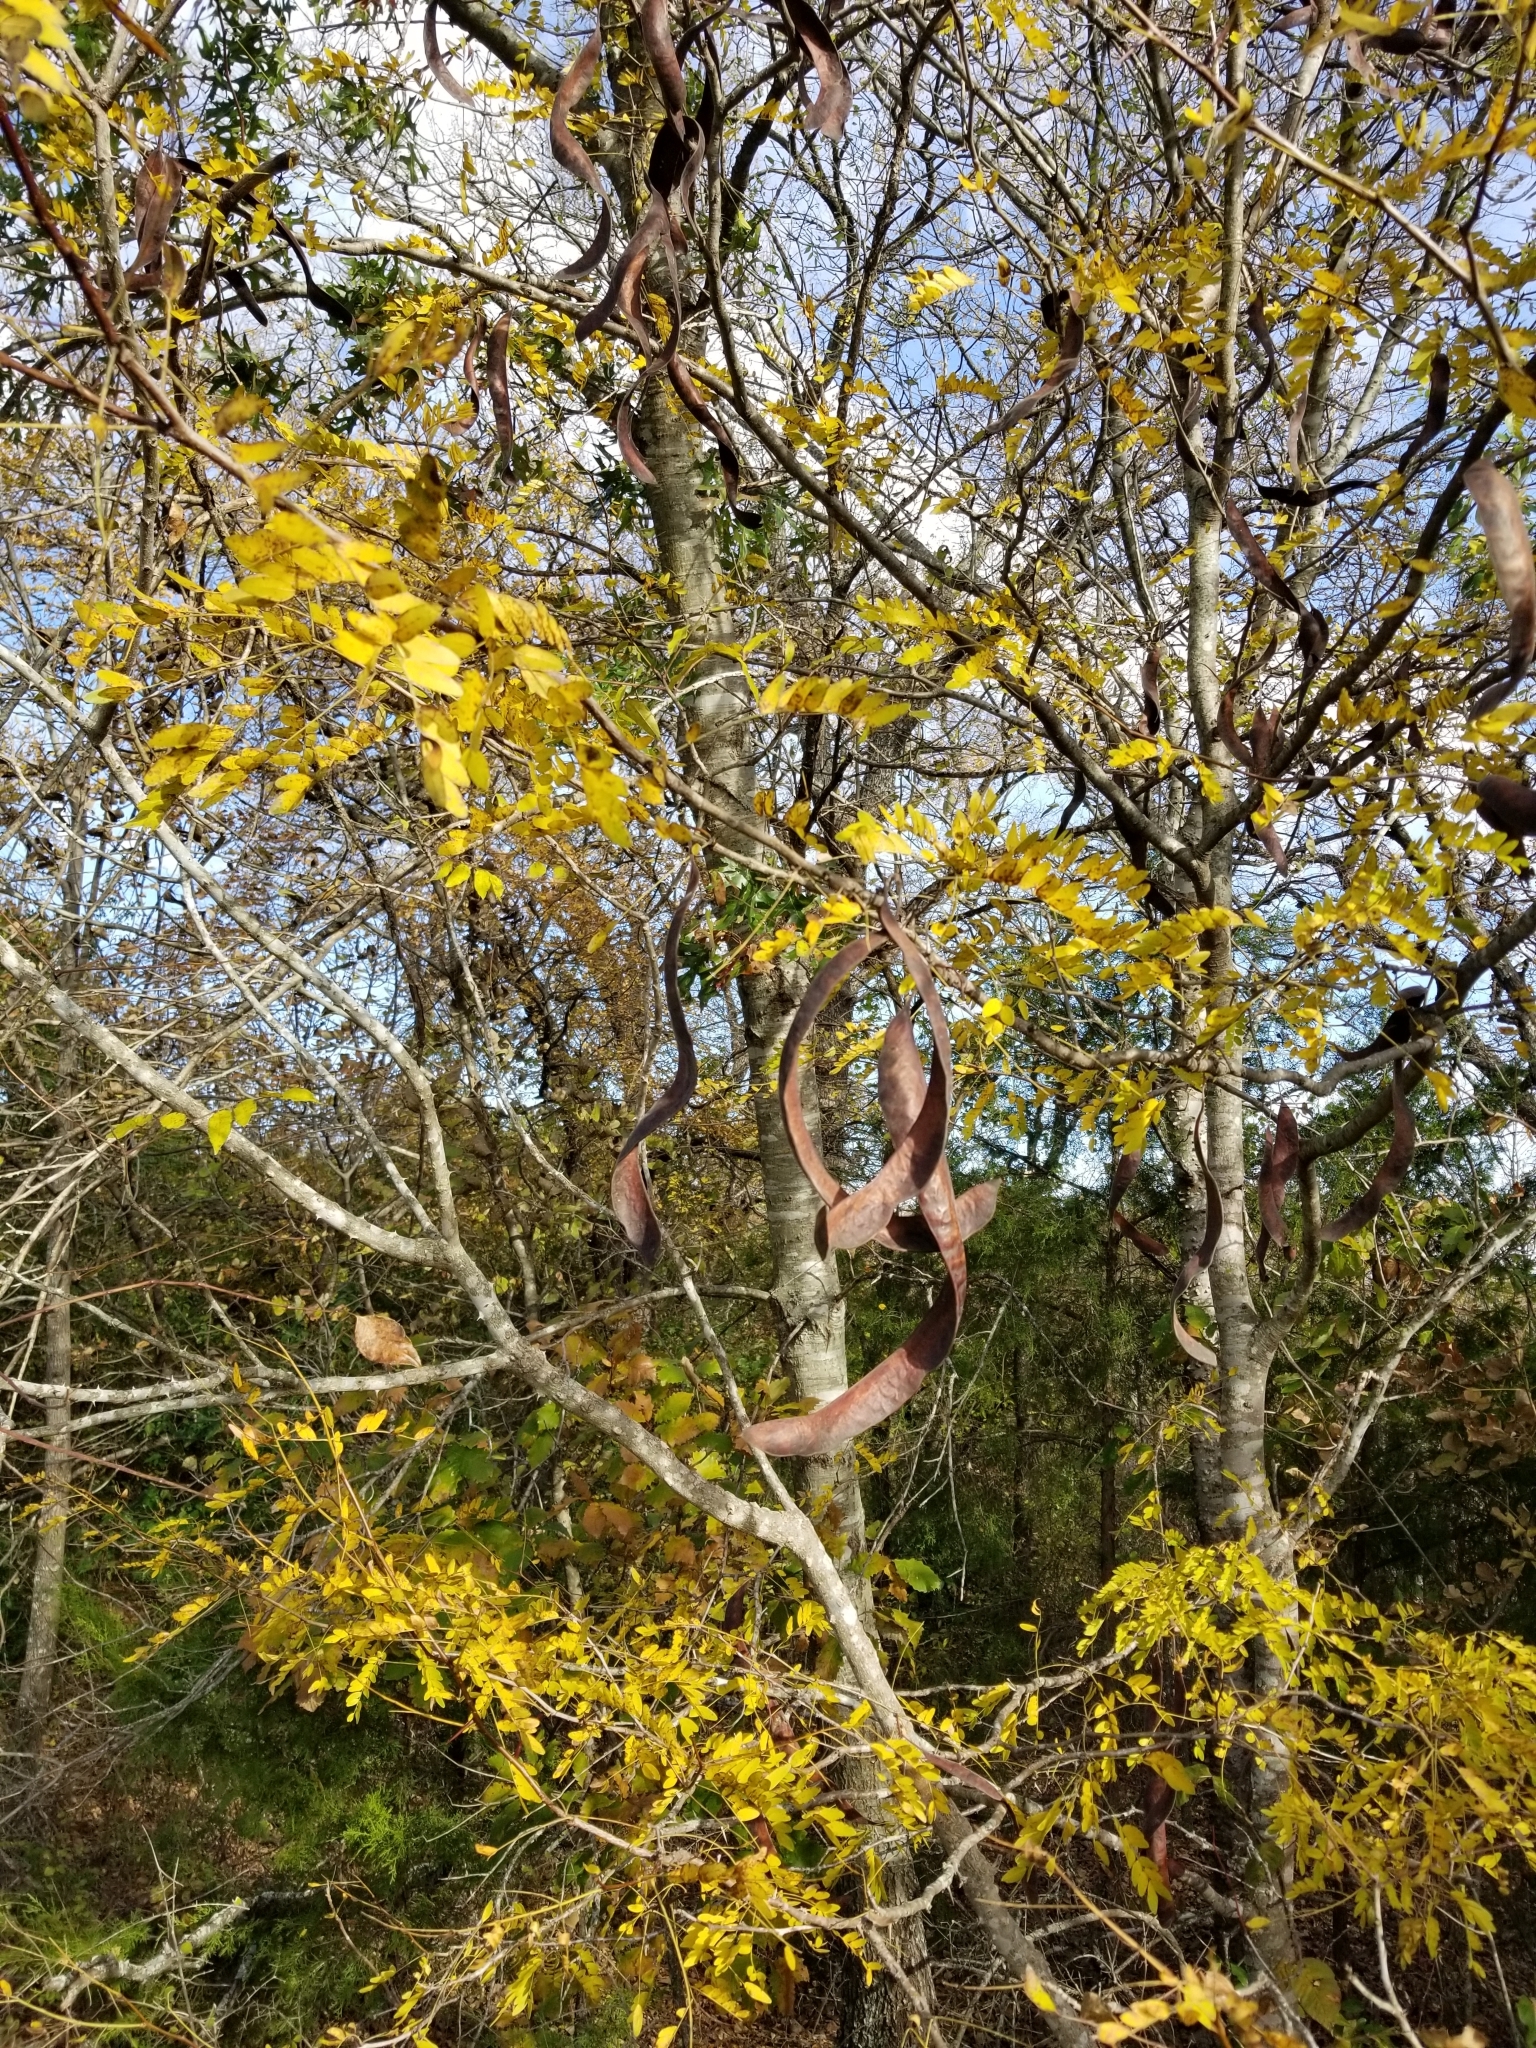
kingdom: Plantae
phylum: Tracheophyta
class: Magnoliopsida
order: Fabales
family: Fabaceae
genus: Gleditsia
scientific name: Gleditsia triacanthos
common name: Common honeylocust
